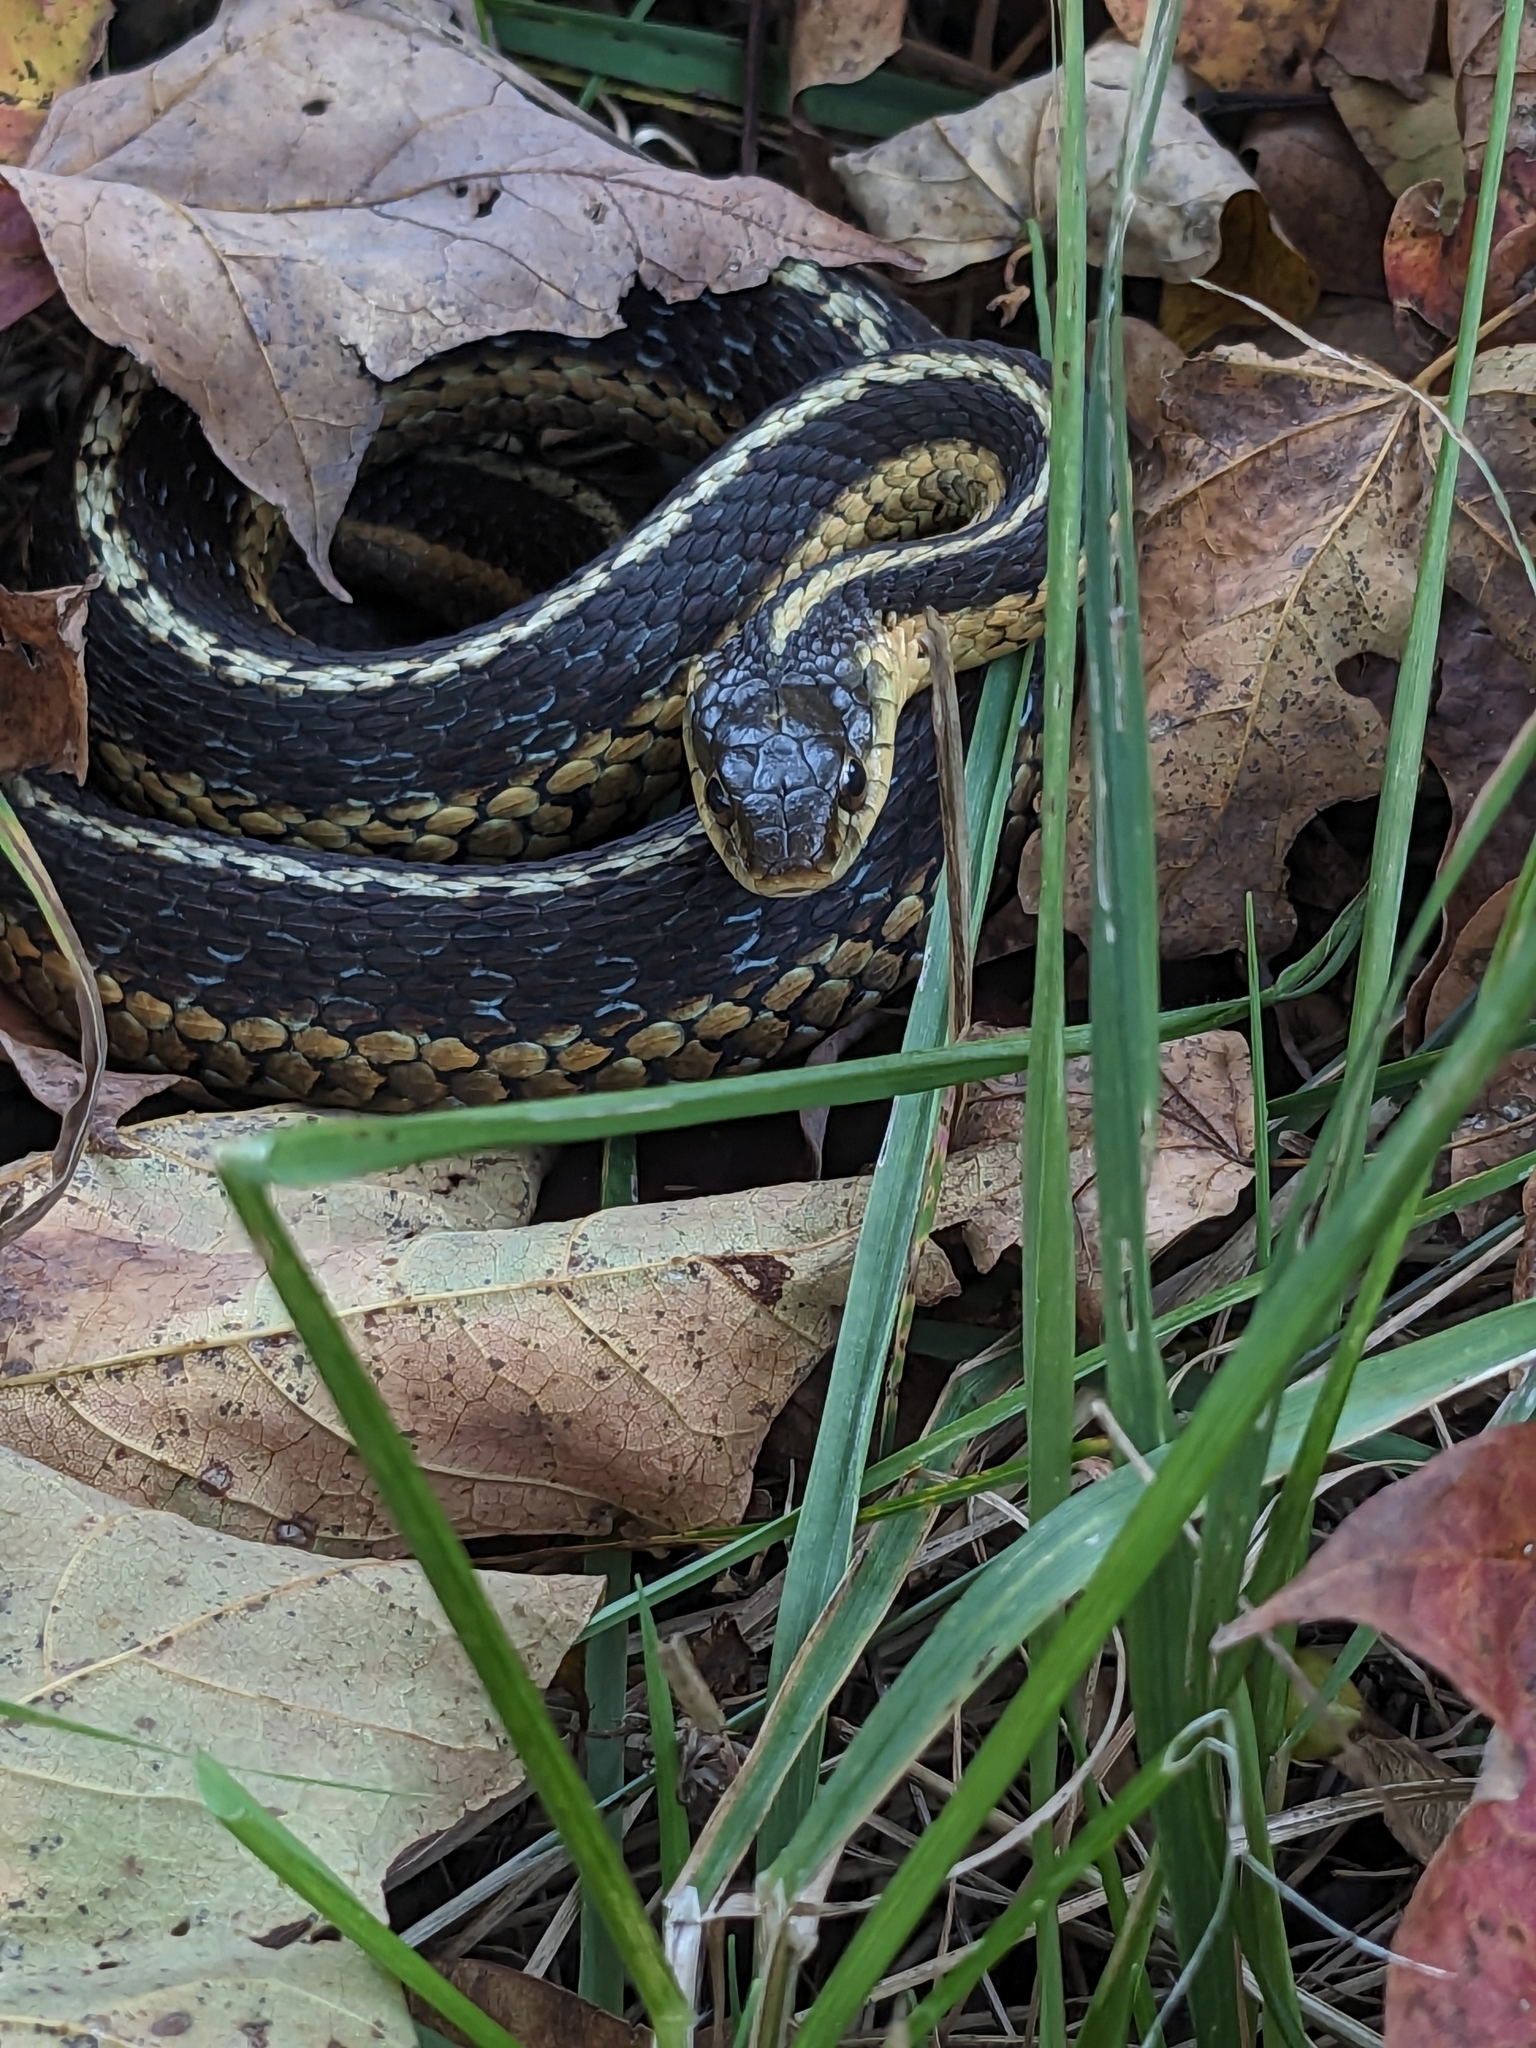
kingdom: Animalia
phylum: Chordata
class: Squamata
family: Colubridae
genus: Thamnophis
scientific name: Thamnophis sirtalis
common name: Common garter snake
